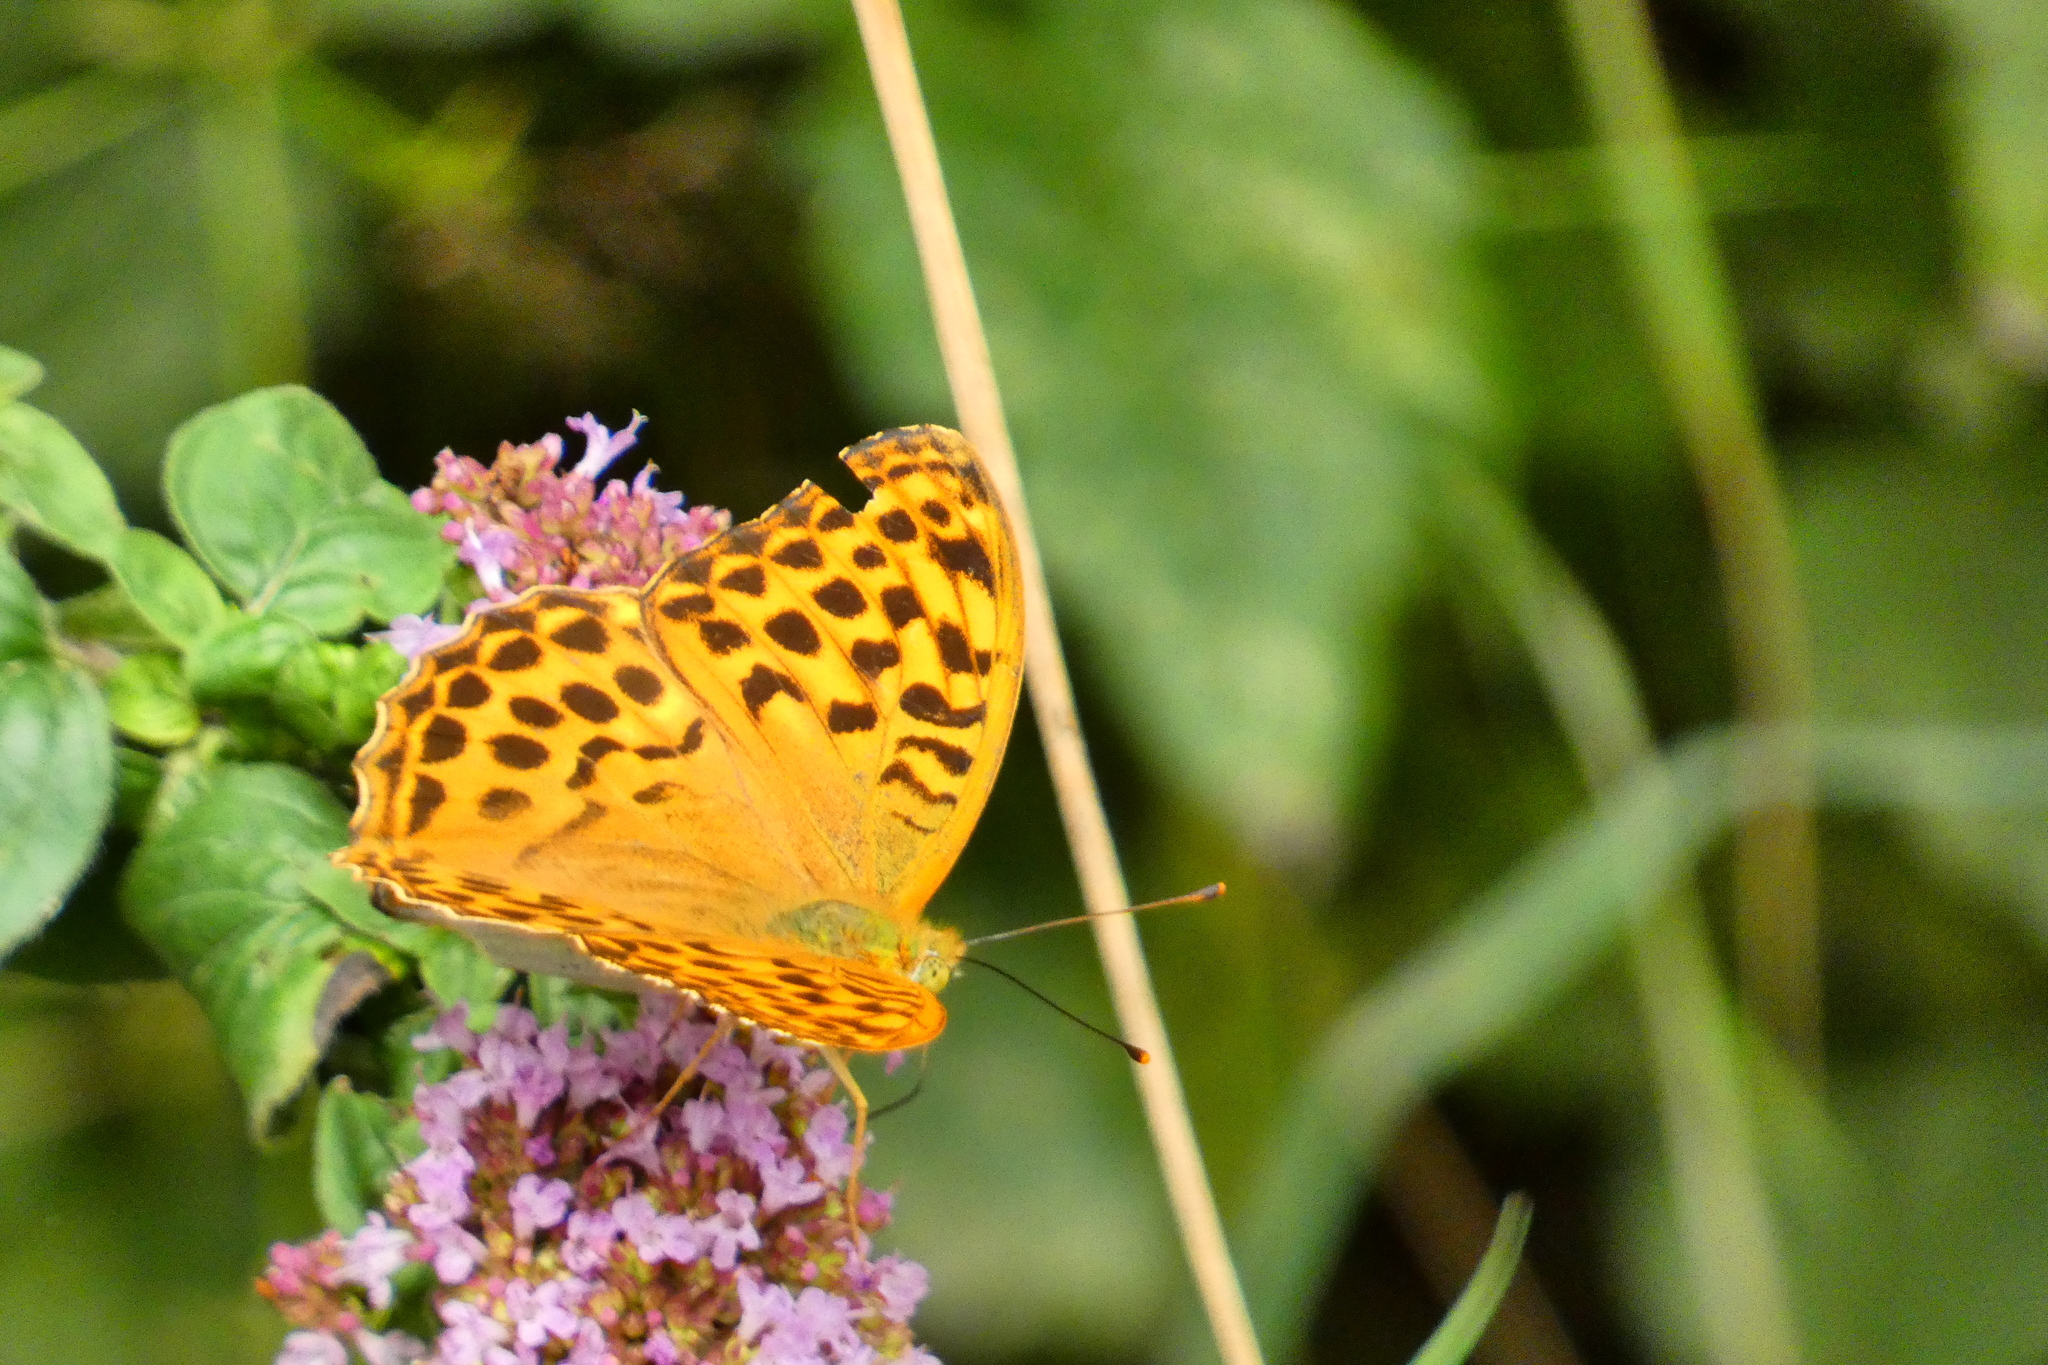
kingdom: Animalia
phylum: Arthropoda
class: Insecta
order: Lepidoptera
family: Nymphalidae
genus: Argynnis
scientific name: Argynnis paphia
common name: Silver-washed fritillary
